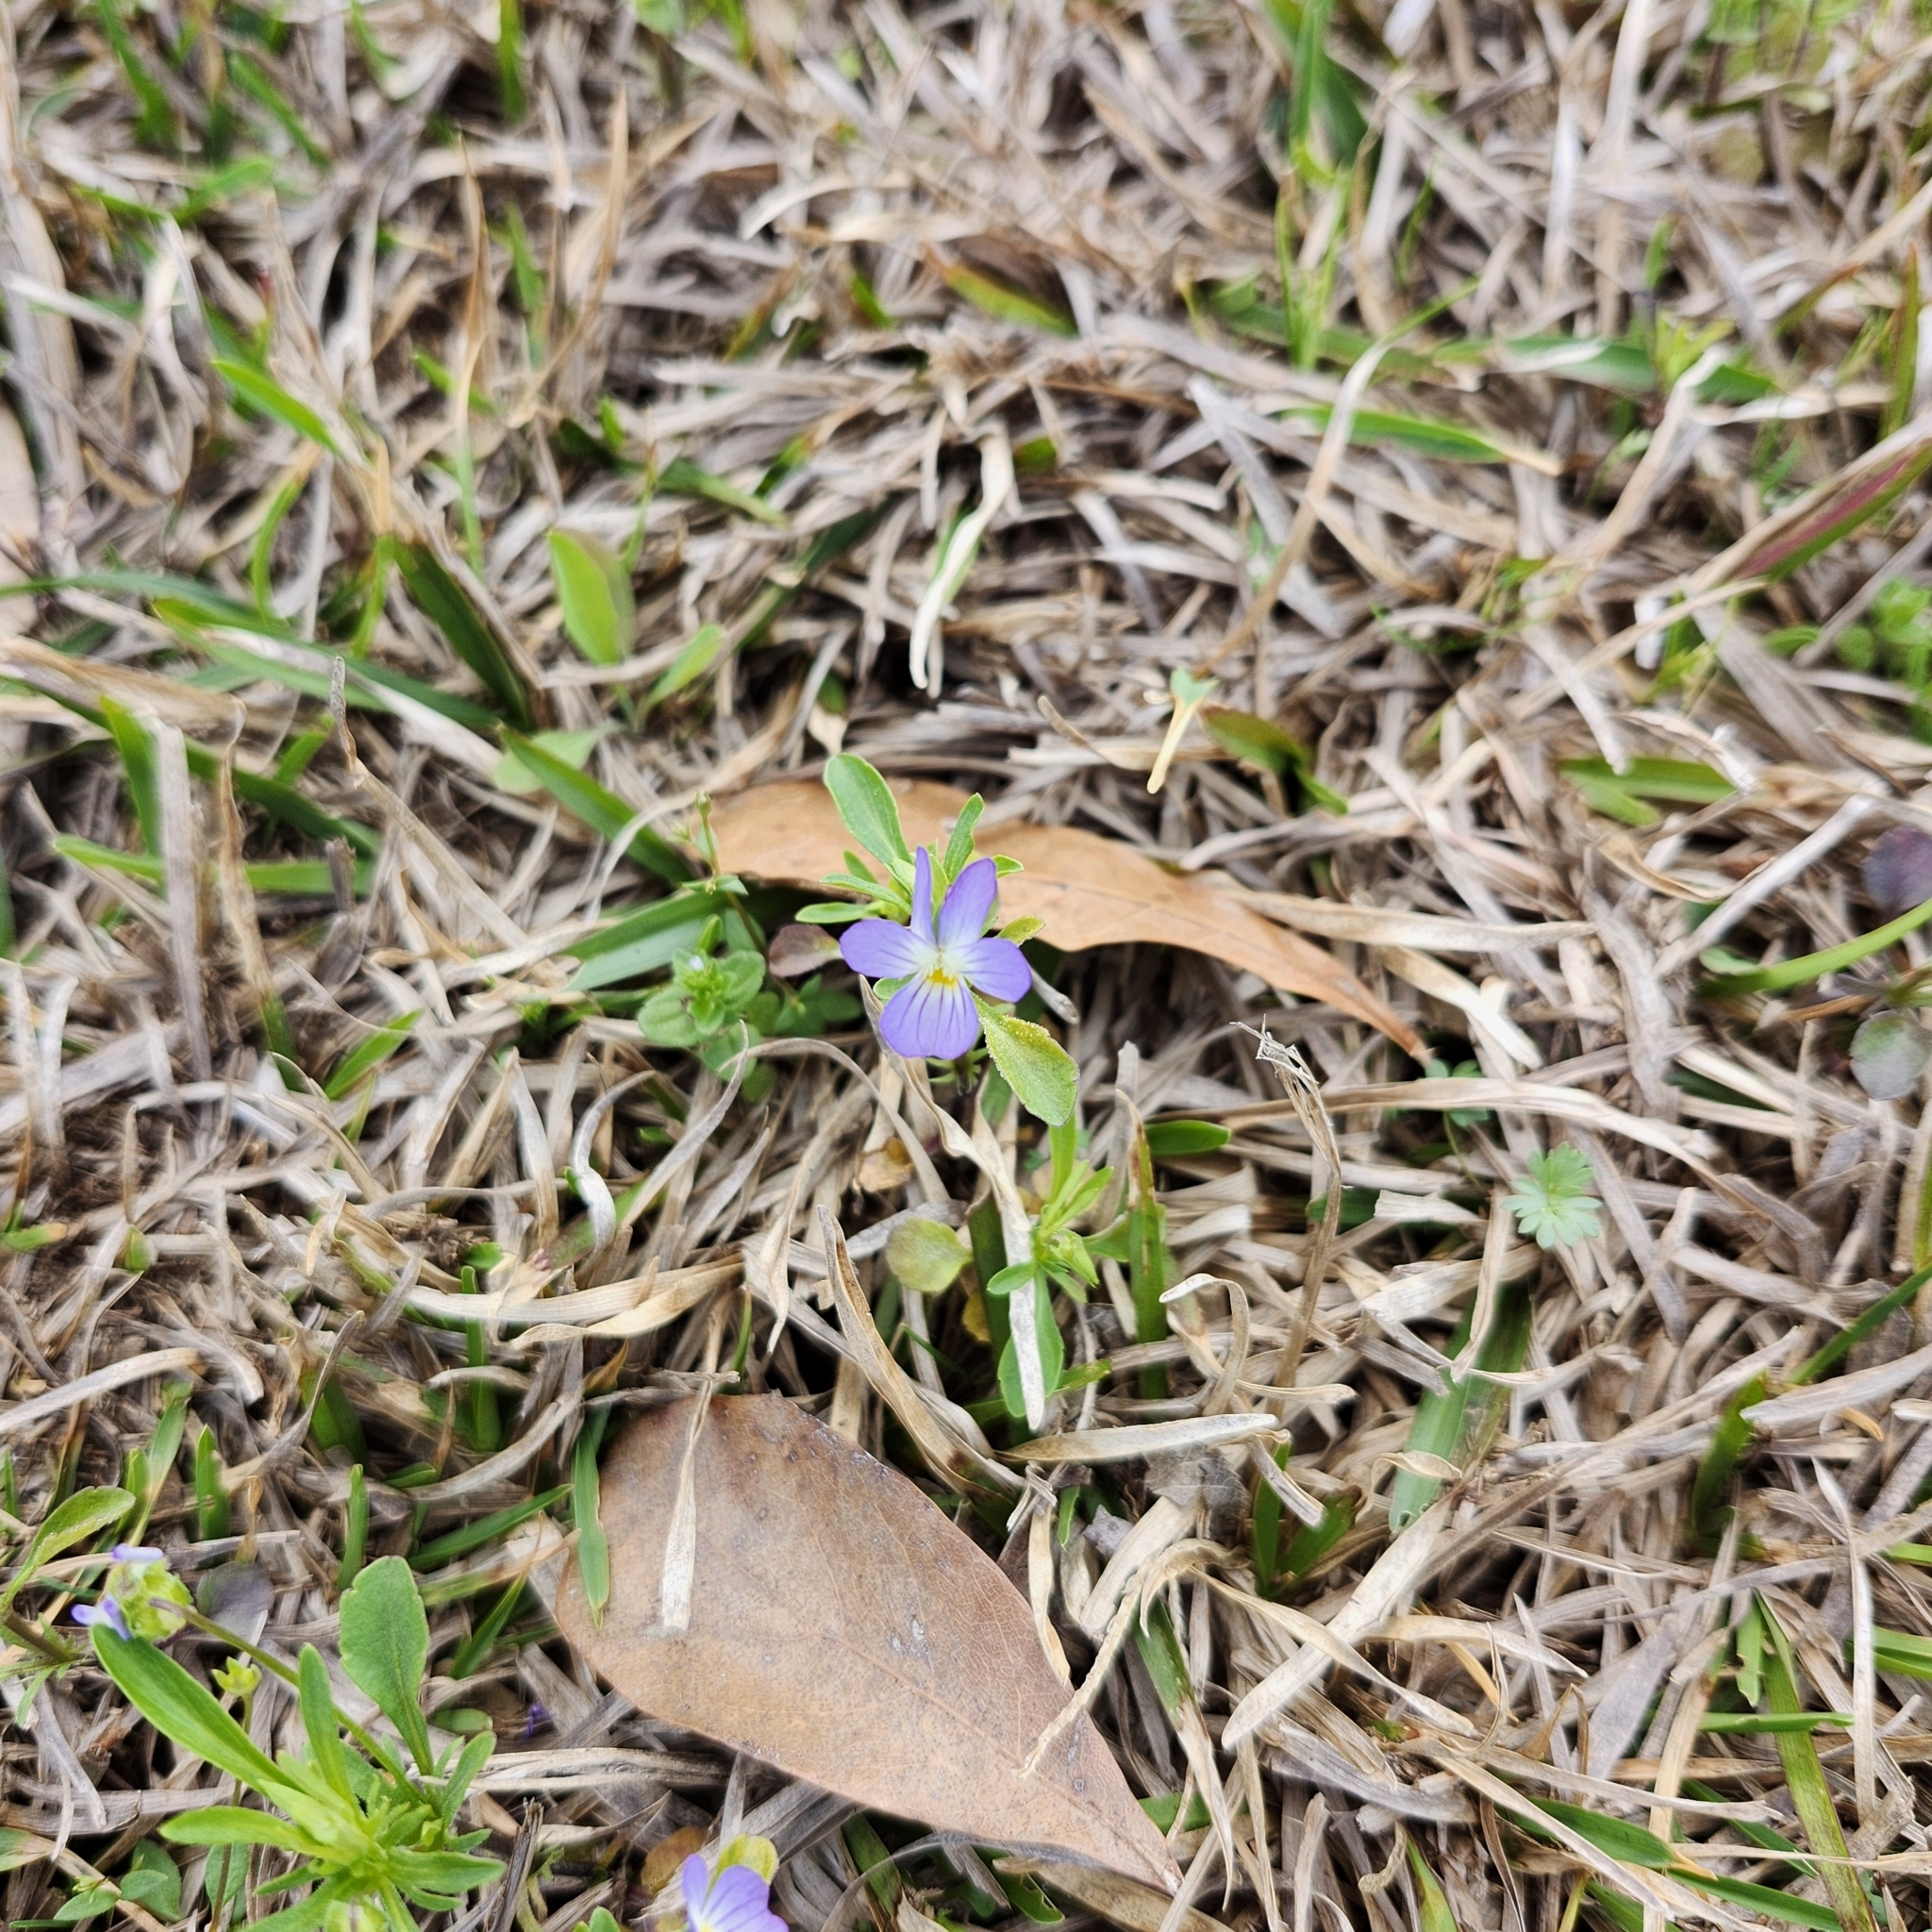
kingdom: Plantae
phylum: Tracheophyta
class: Magnoliopsida
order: Malpighiales
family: Violaceae
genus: Viola
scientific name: Viola rafinesquei
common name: American field pansy
